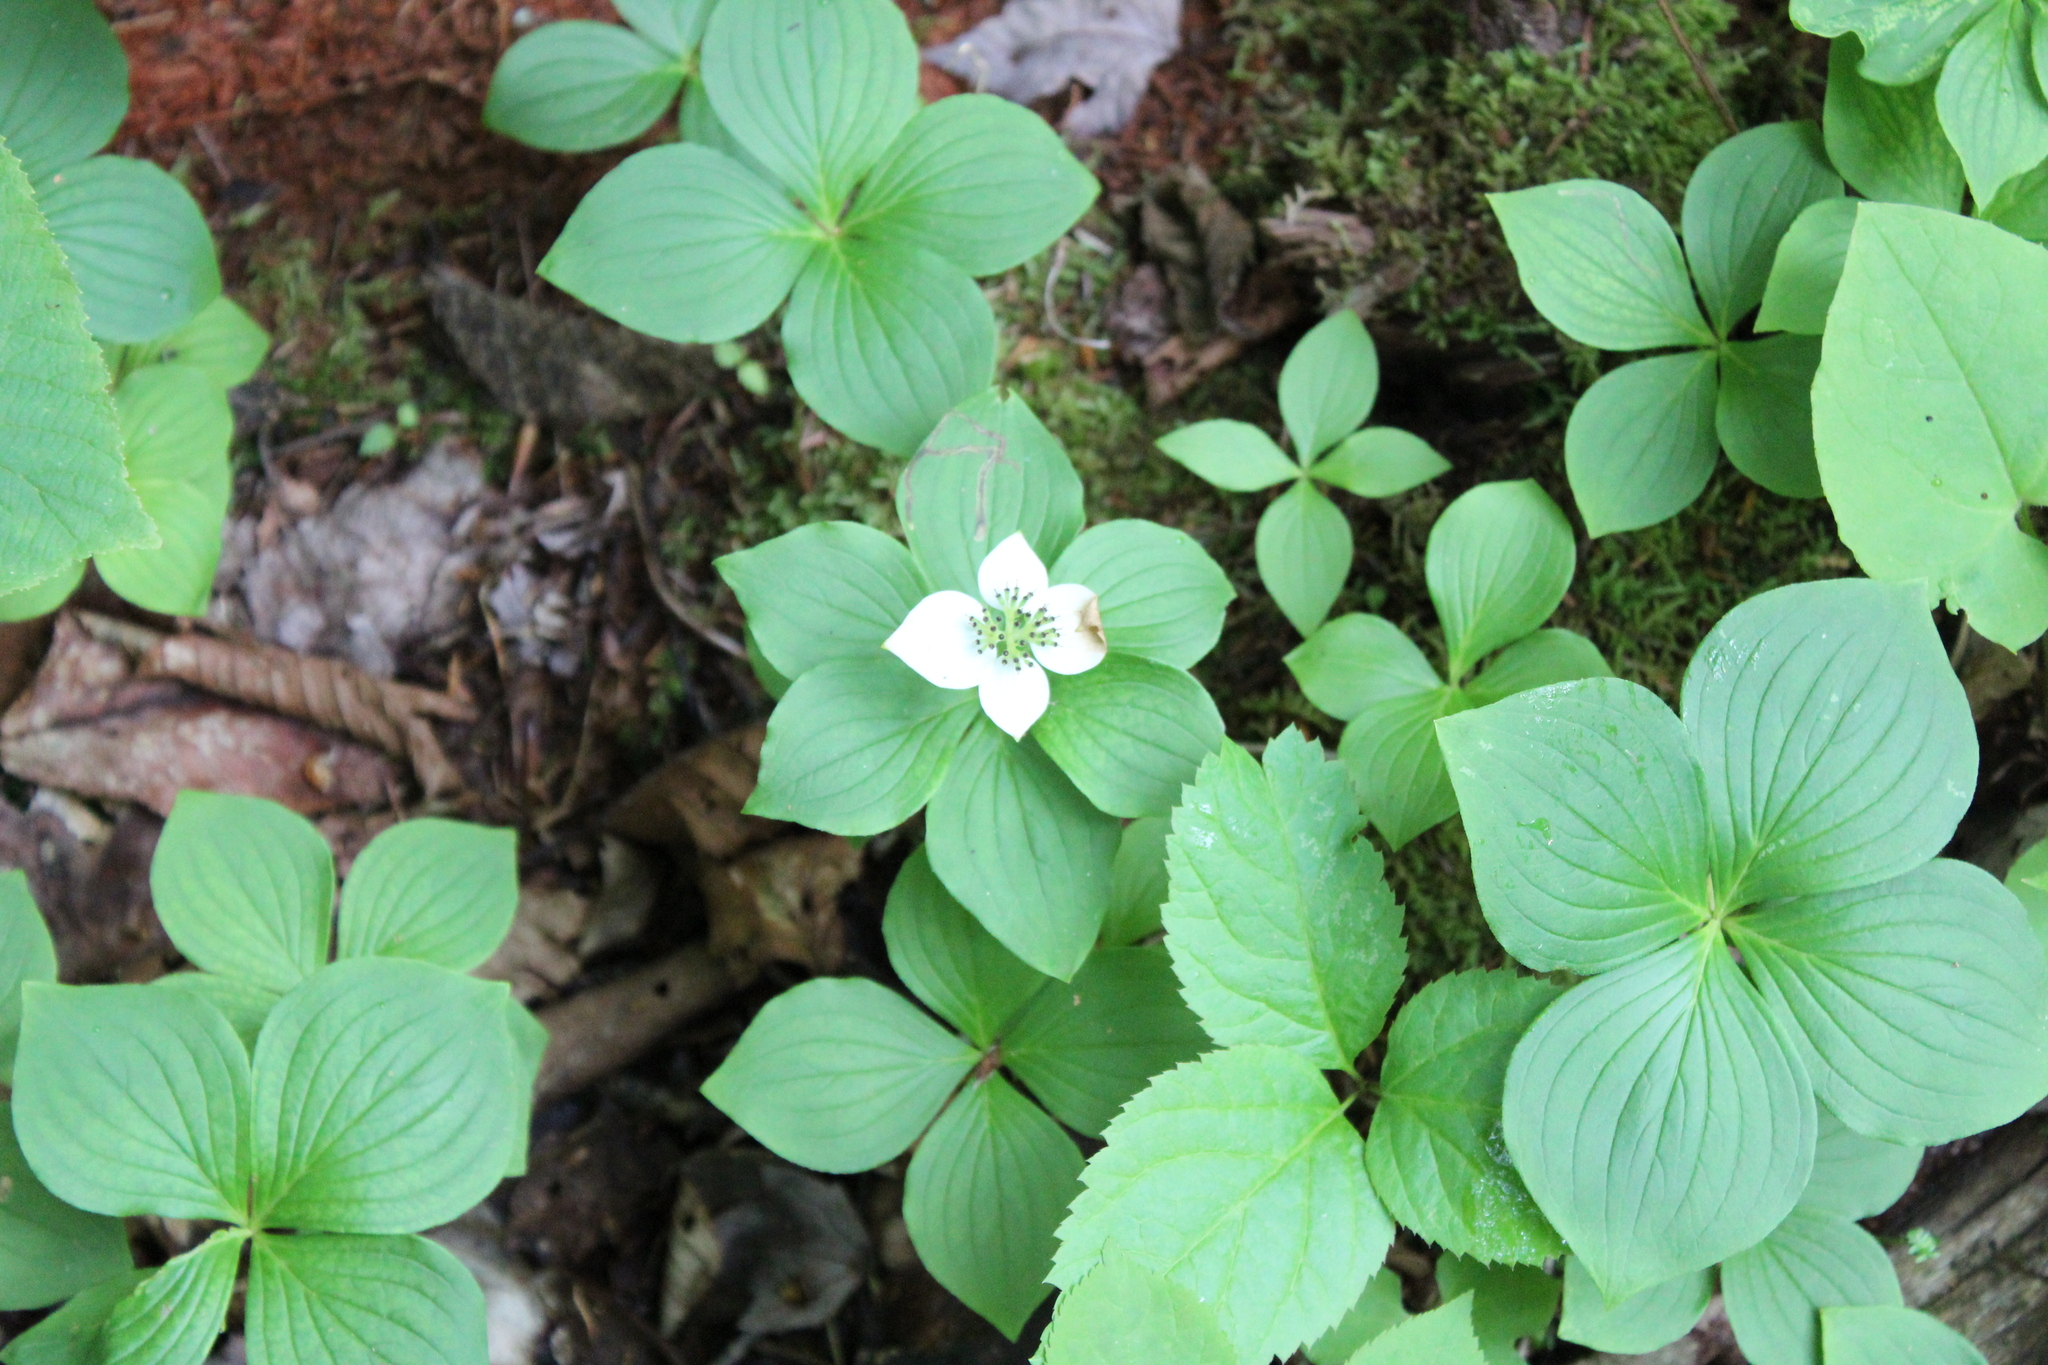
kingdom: Plantae
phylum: Tracheophyta
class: Magnoliopsida
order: Cornales
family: Cornaceae
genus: Cornus
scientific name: Cornus canadensis
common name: Creeping dogwood
